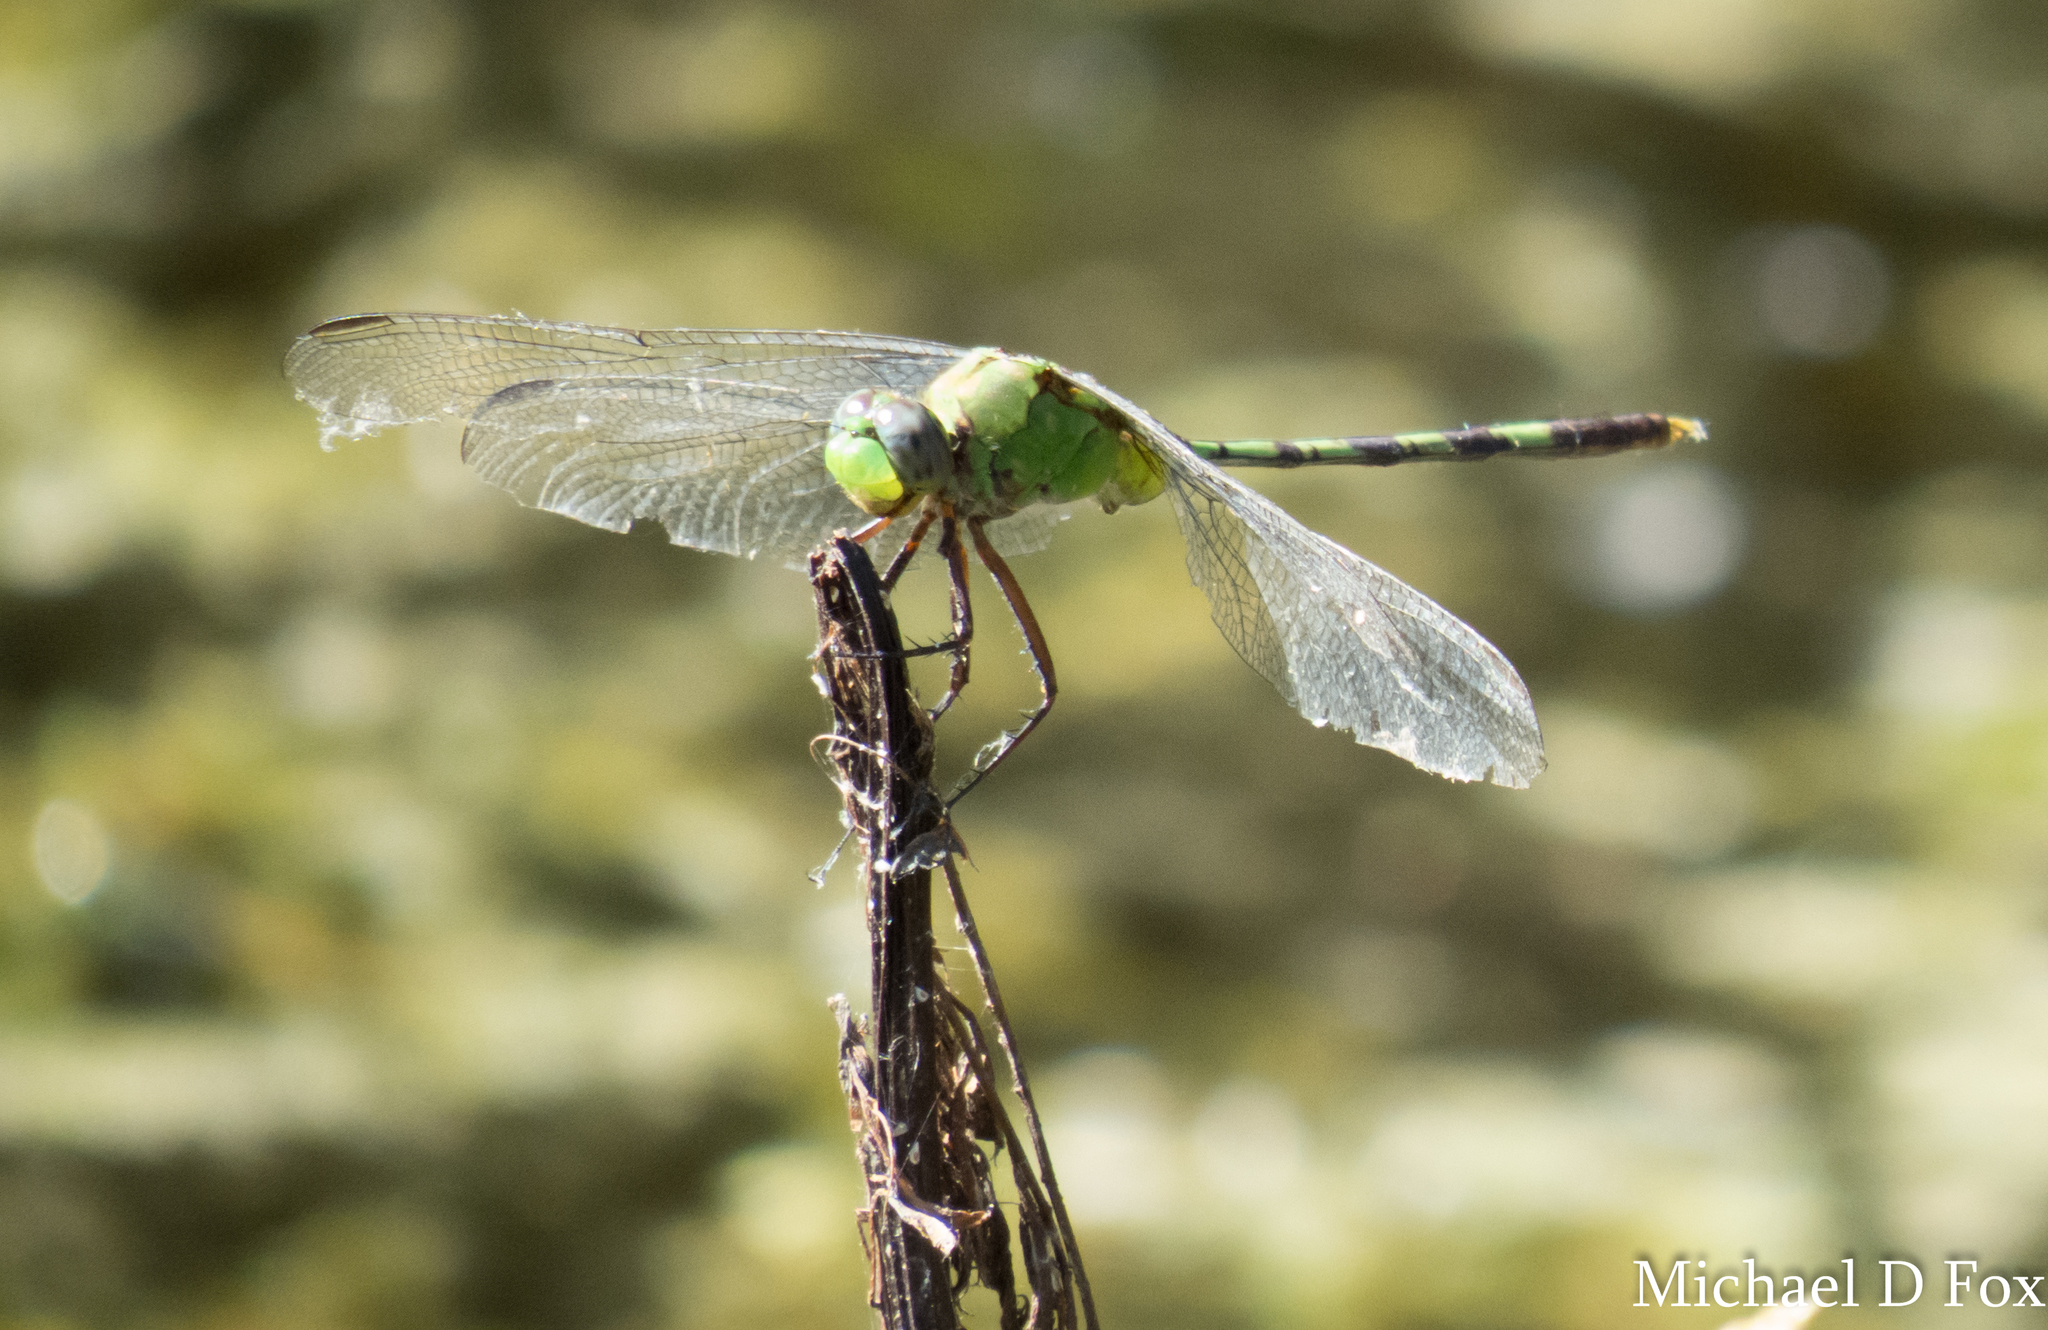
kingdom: Animalia
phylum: Arthropoda
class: Insecta
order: Odonata
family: Libellulidae
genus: Erythemis
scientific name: Erythemis vesiculosa
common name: Great pondhawk
